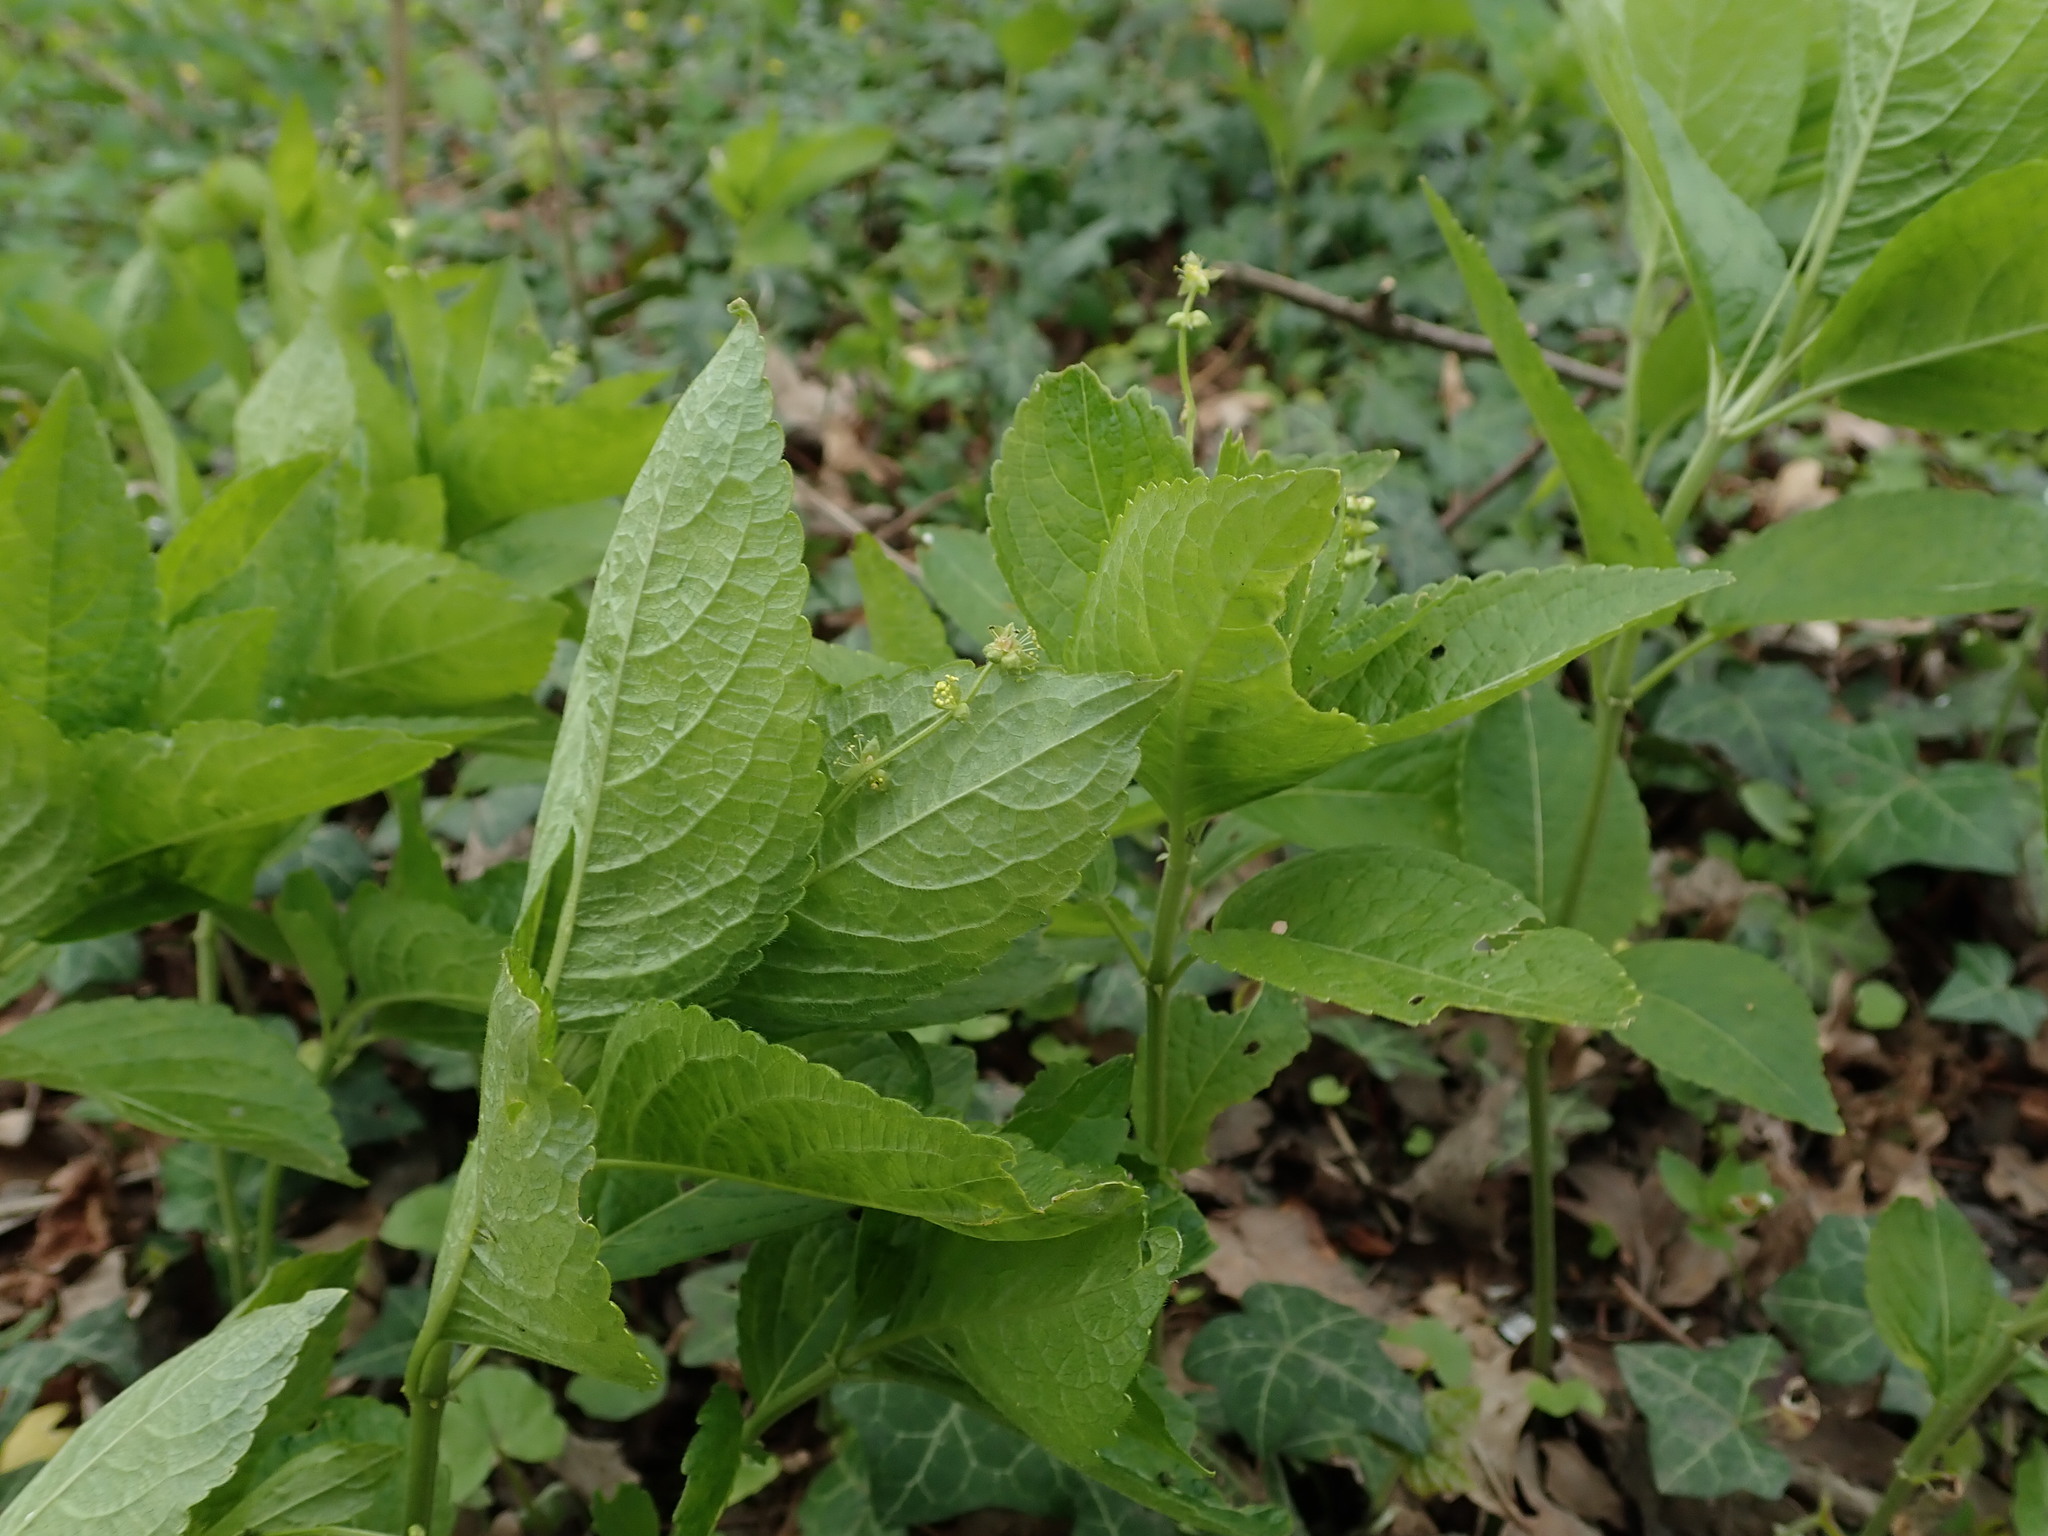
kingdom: Plantae
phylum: Tracheophyta
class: Magnoliopsida
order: Malpighiales
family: Euphorbiaceae
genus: Mercurialis
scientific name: Mercurialis perennis
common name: Dog mercury
